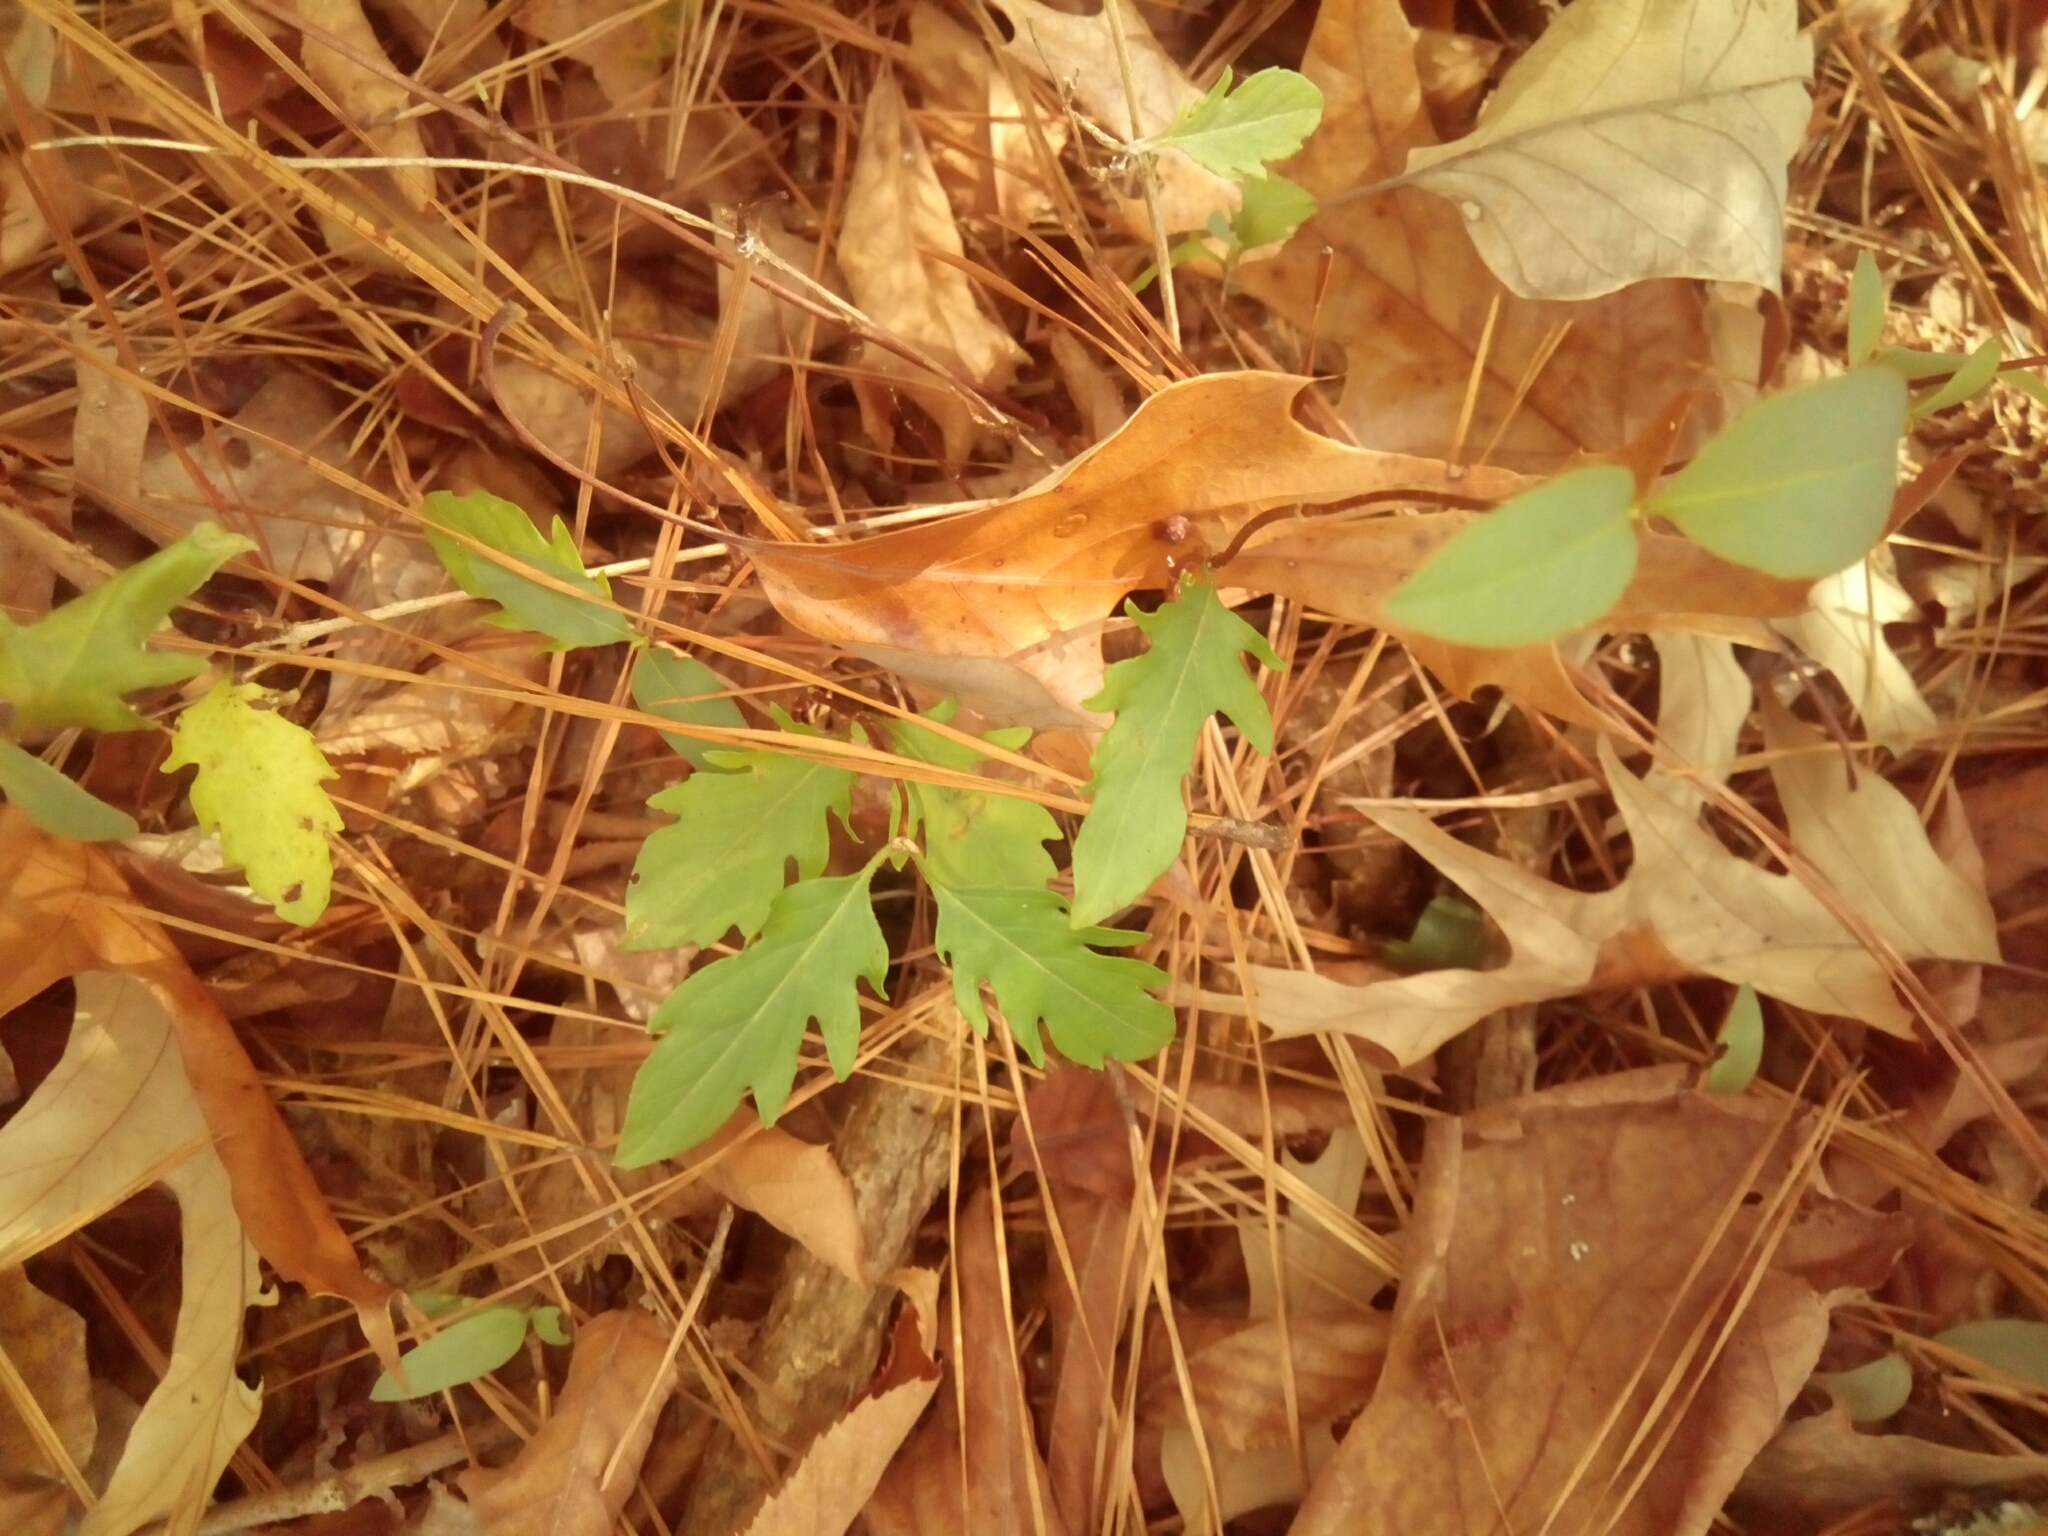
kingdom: Plantae
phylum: Tracheophyta
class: Magnoliopsida
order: Dipsacales
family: Caprifoliaceae
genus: Lonicera
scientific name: Lonicera japonica
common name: Japanese honeysuckle
